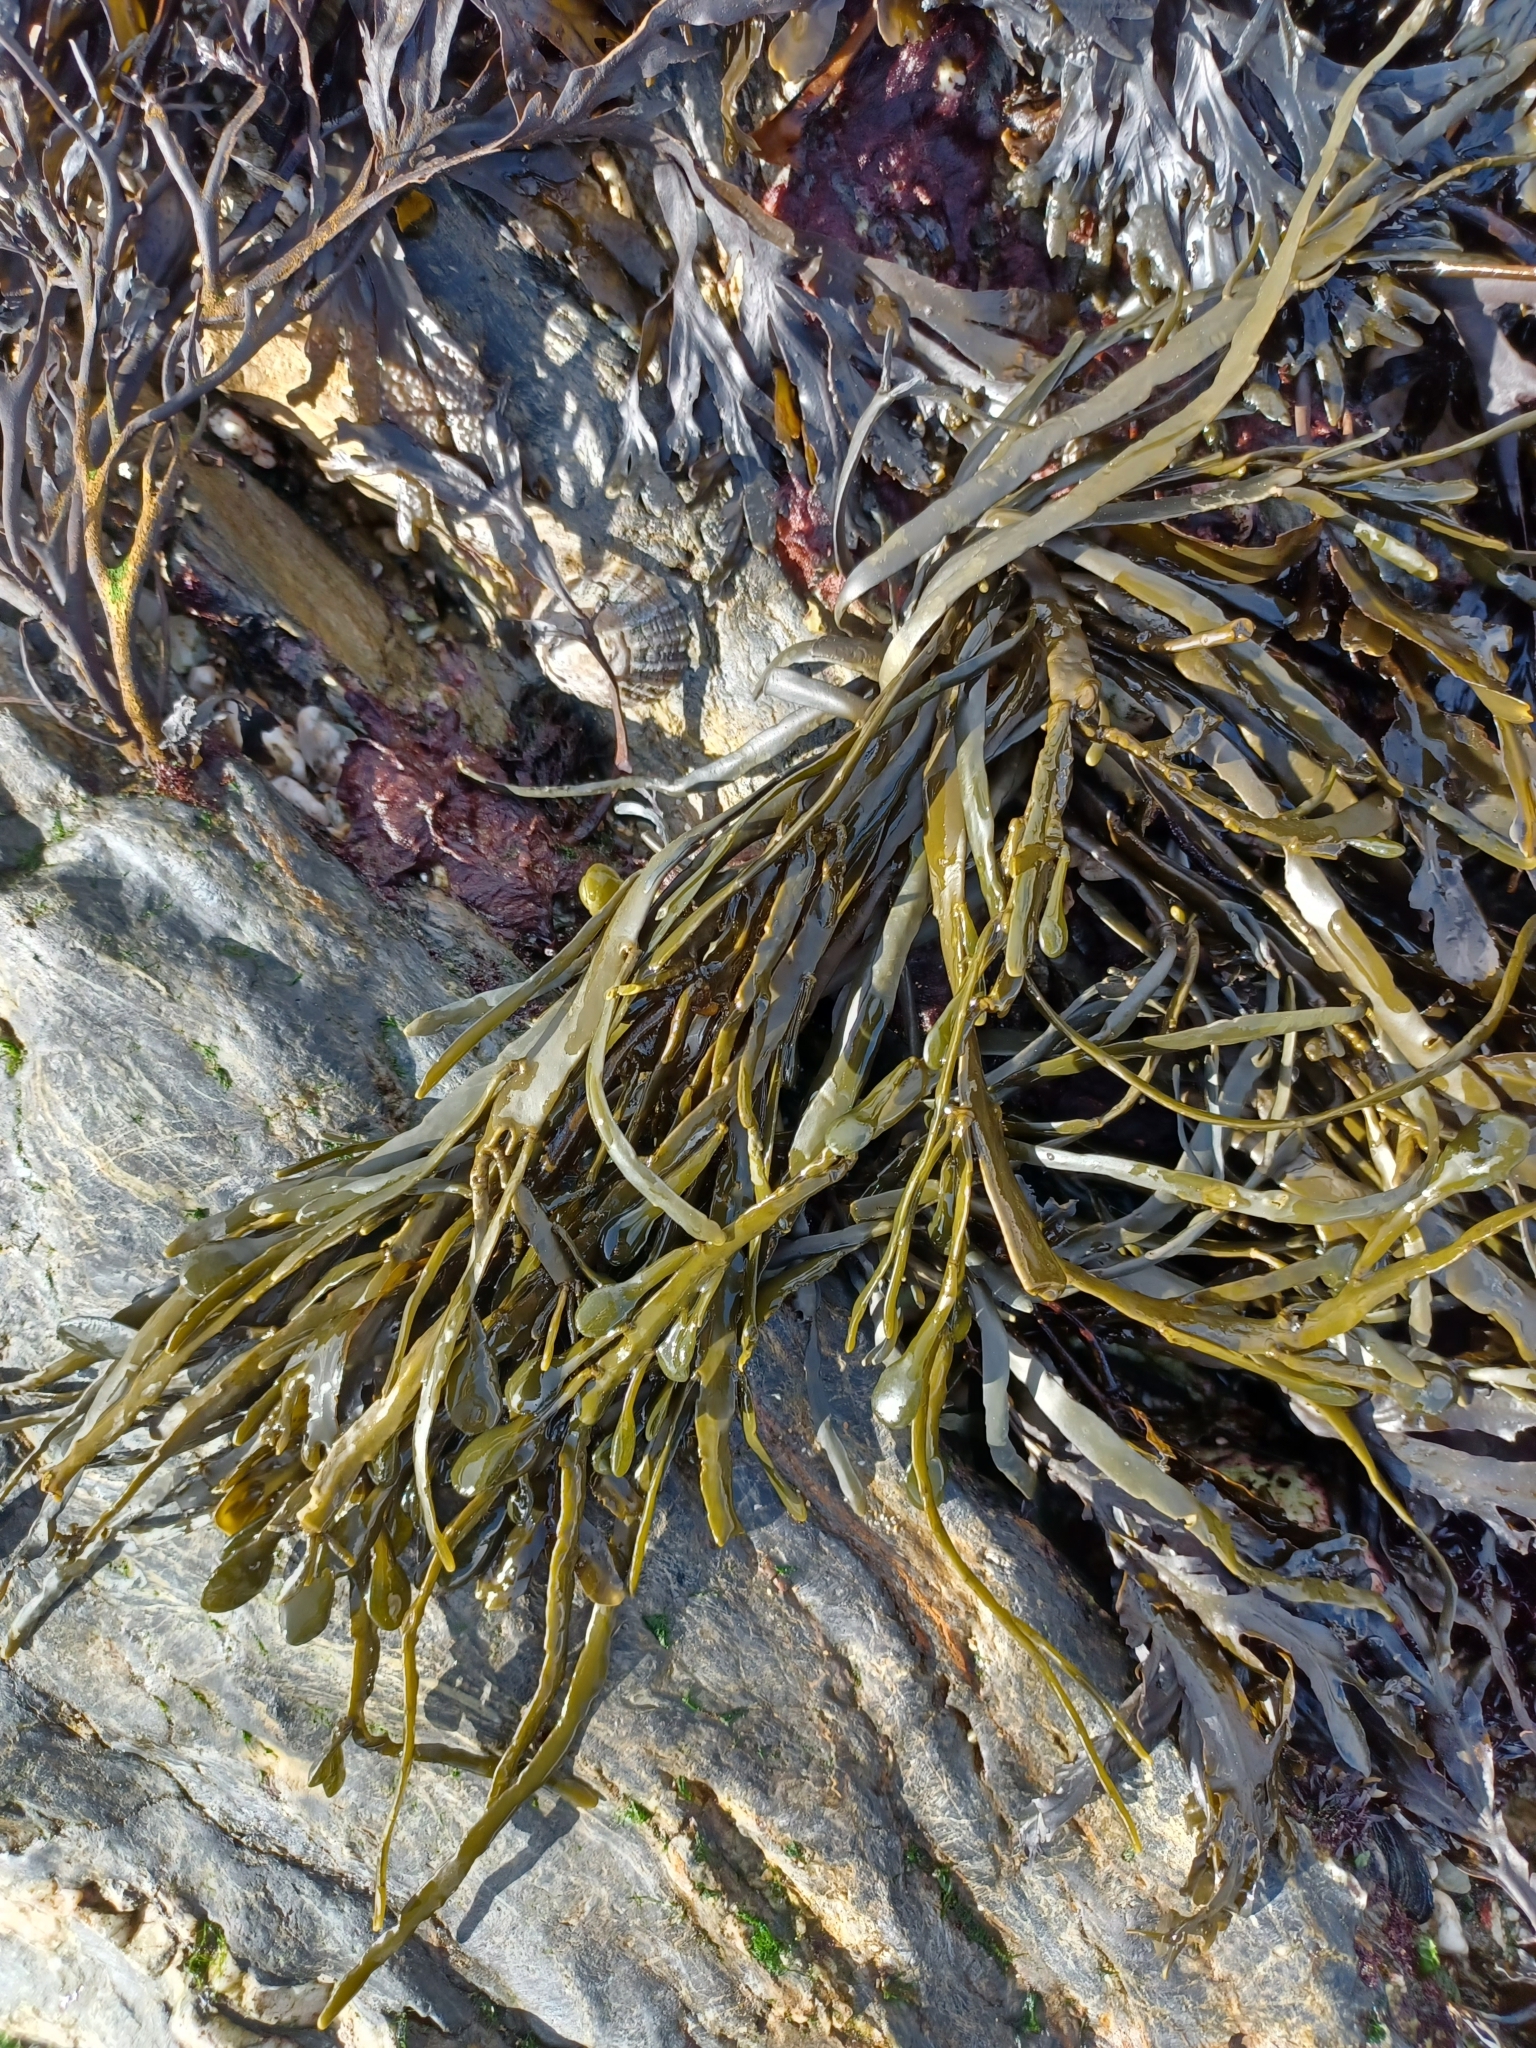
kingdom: Chromista
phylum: Ochrophyta
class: Phaeophyceae
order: Fucales
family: Fucaceae
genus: Ascophyllum
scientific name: Ascophyllum nodosum
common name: Knotted wrack
